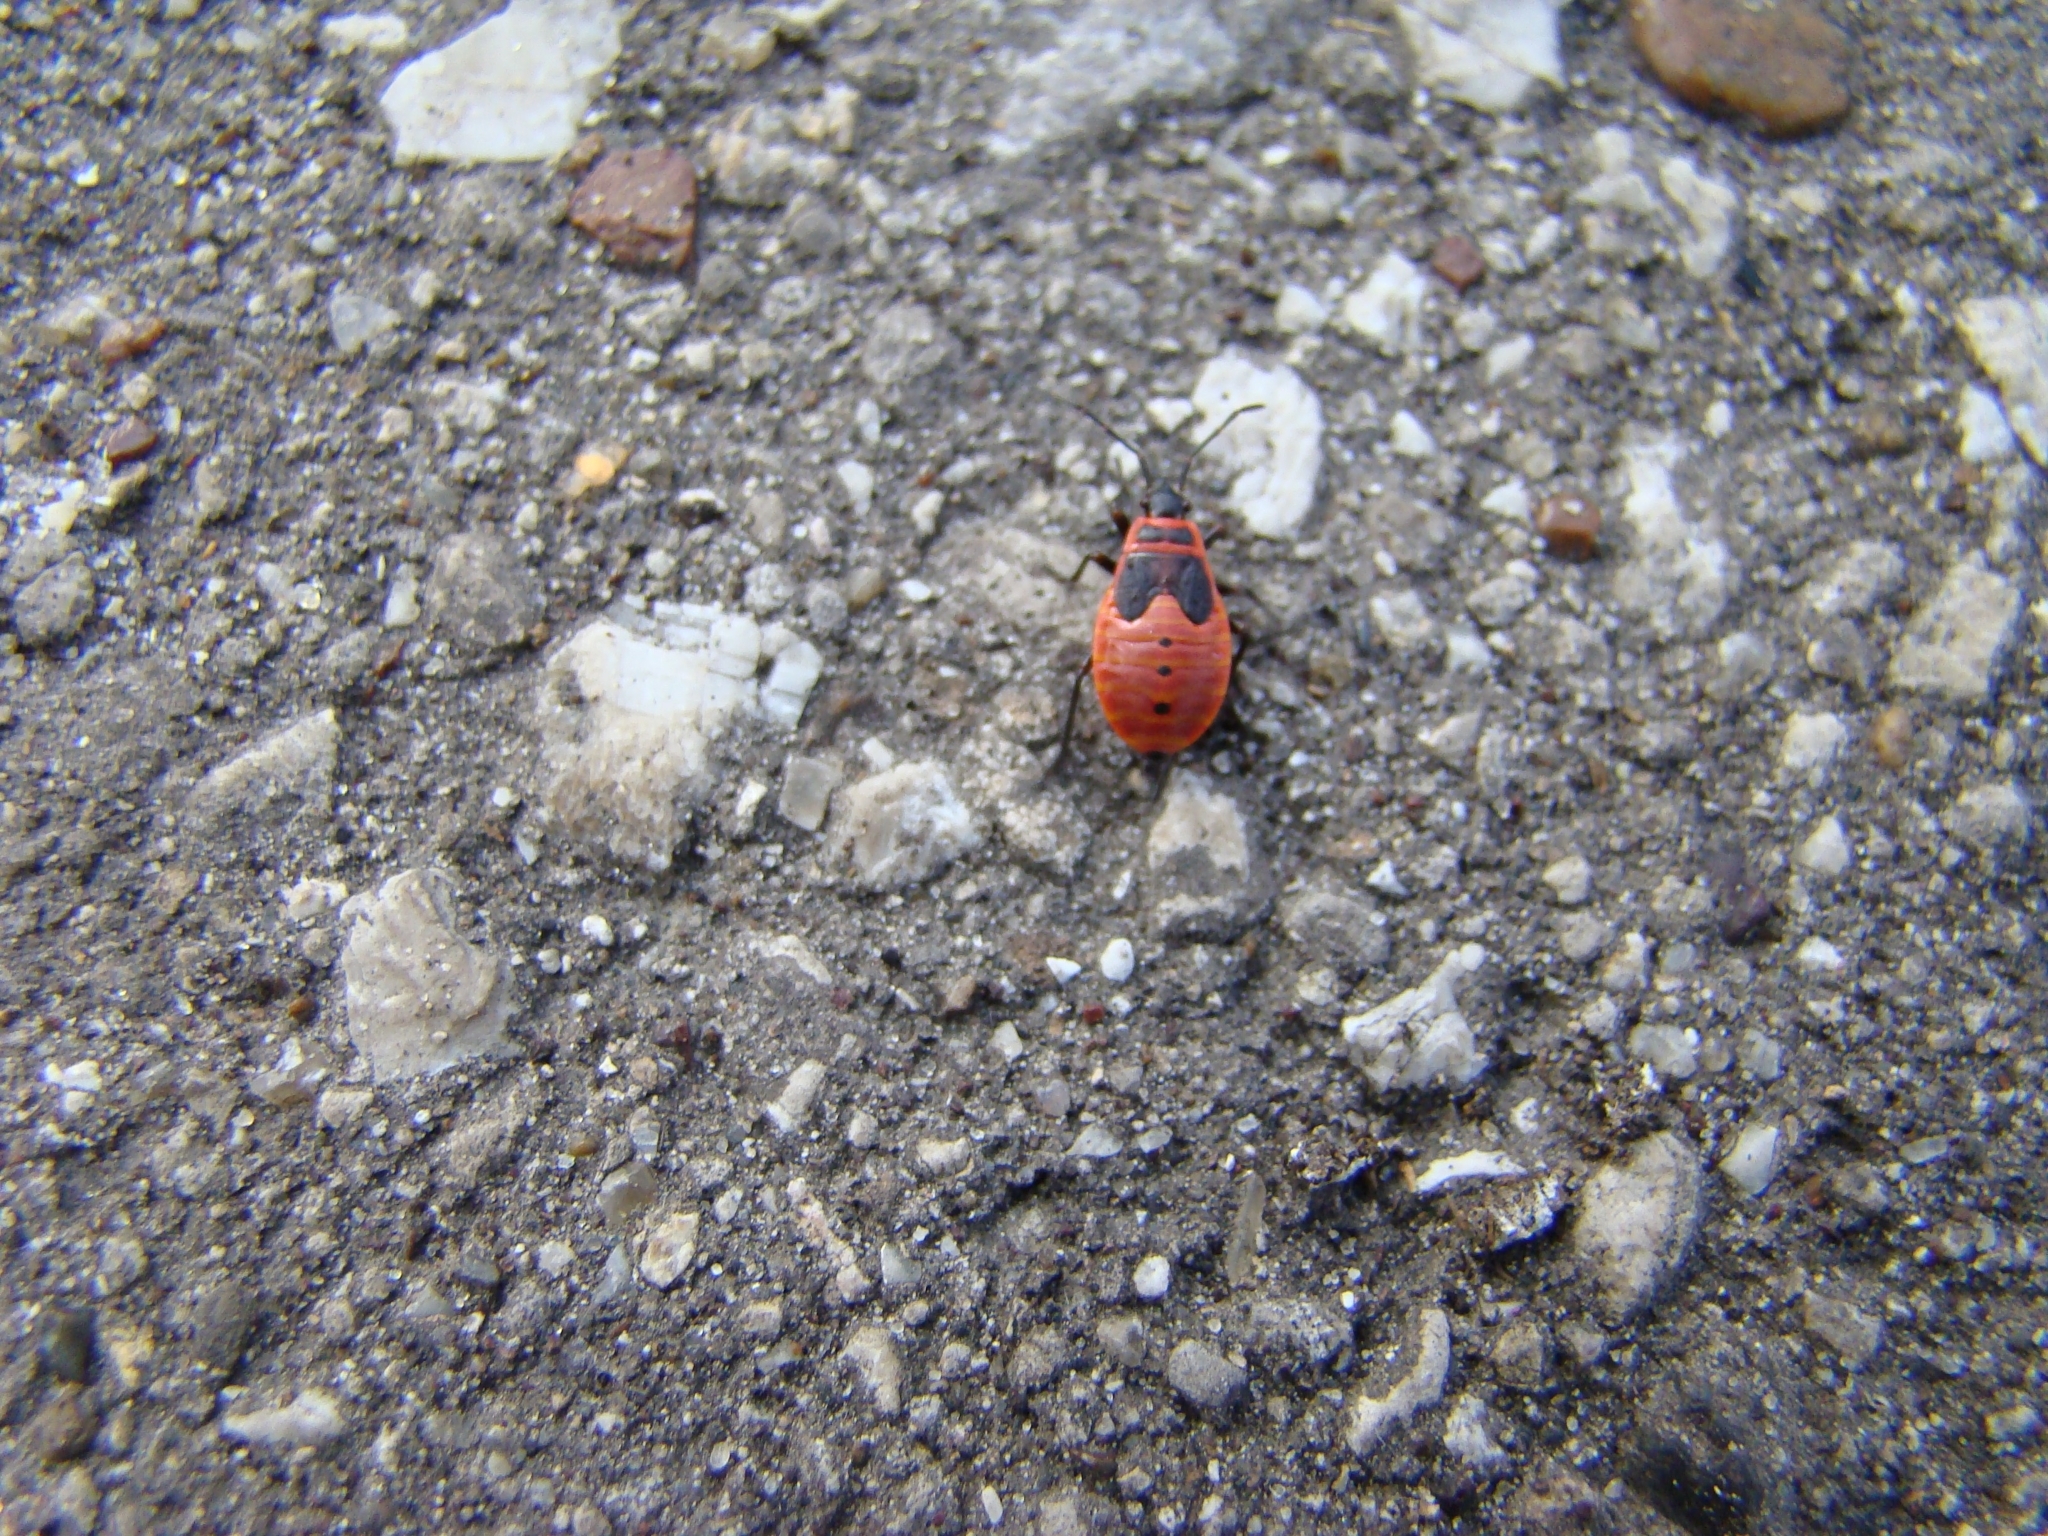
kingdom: Animalia
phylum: Arthropoda
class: Insecta
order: Hemiptera
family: Pyrrhocoridae
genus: Pyrrhocoris
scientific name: Pyrrhocoris apterus
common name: Firebug
